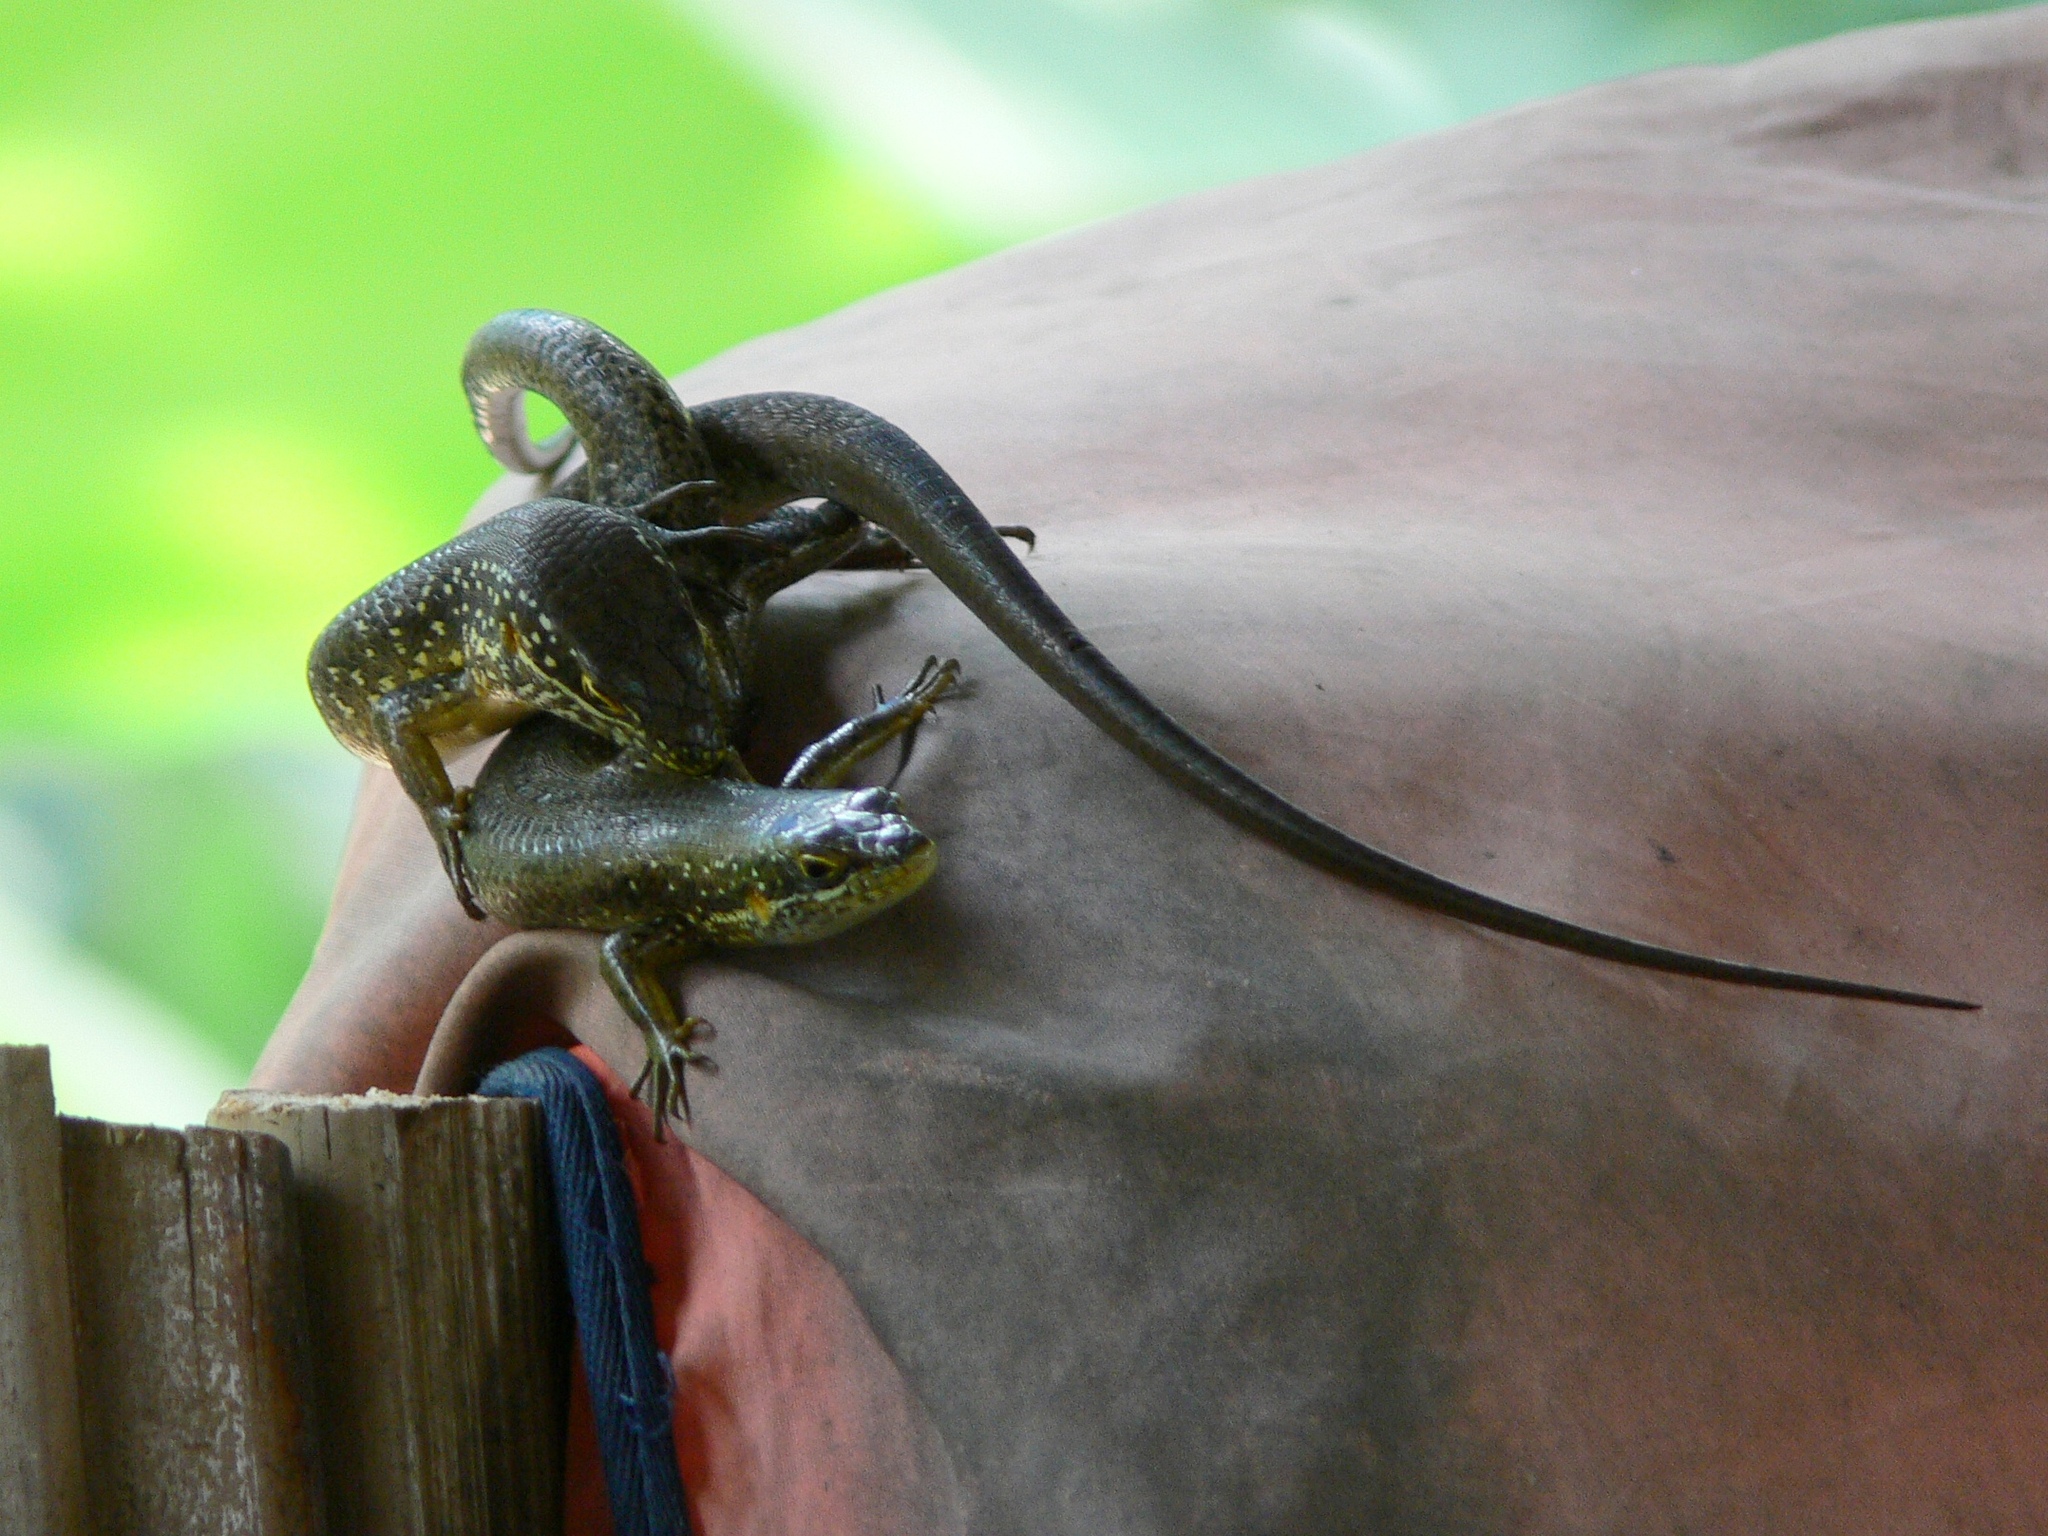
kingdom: Animalia
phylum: Chordata
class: Squamata
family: Scincidae
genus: Trachylepis
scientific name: Trachylepis maculilabris
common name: Speckle-lipped mabuya
